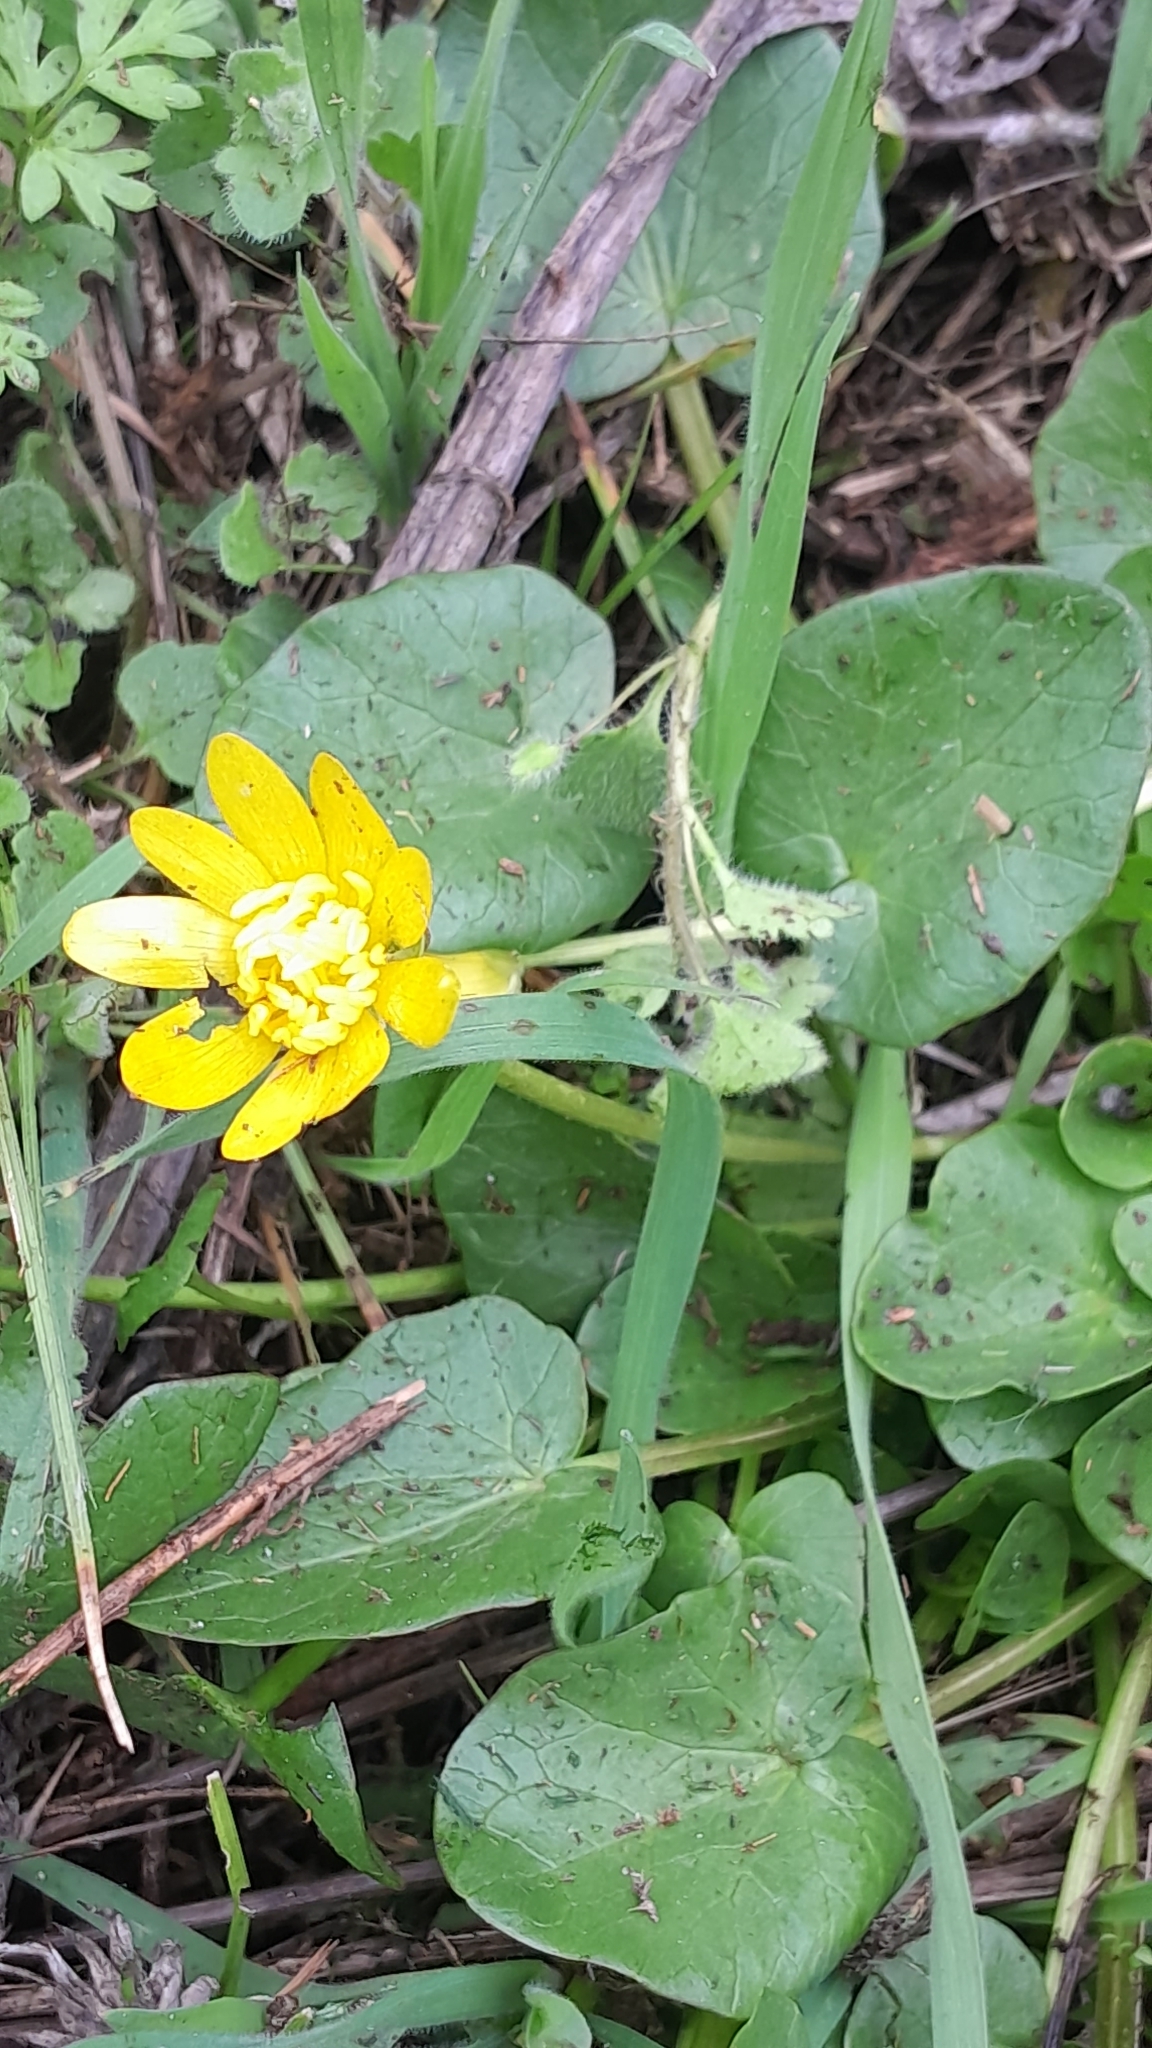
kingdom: Plantae
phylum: Tracheophyta
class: Magnoliopsida
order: Ranunculales
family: Ranunculaceae
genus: Ficaria
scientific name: Ficaria verna
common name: Lesser celandine
